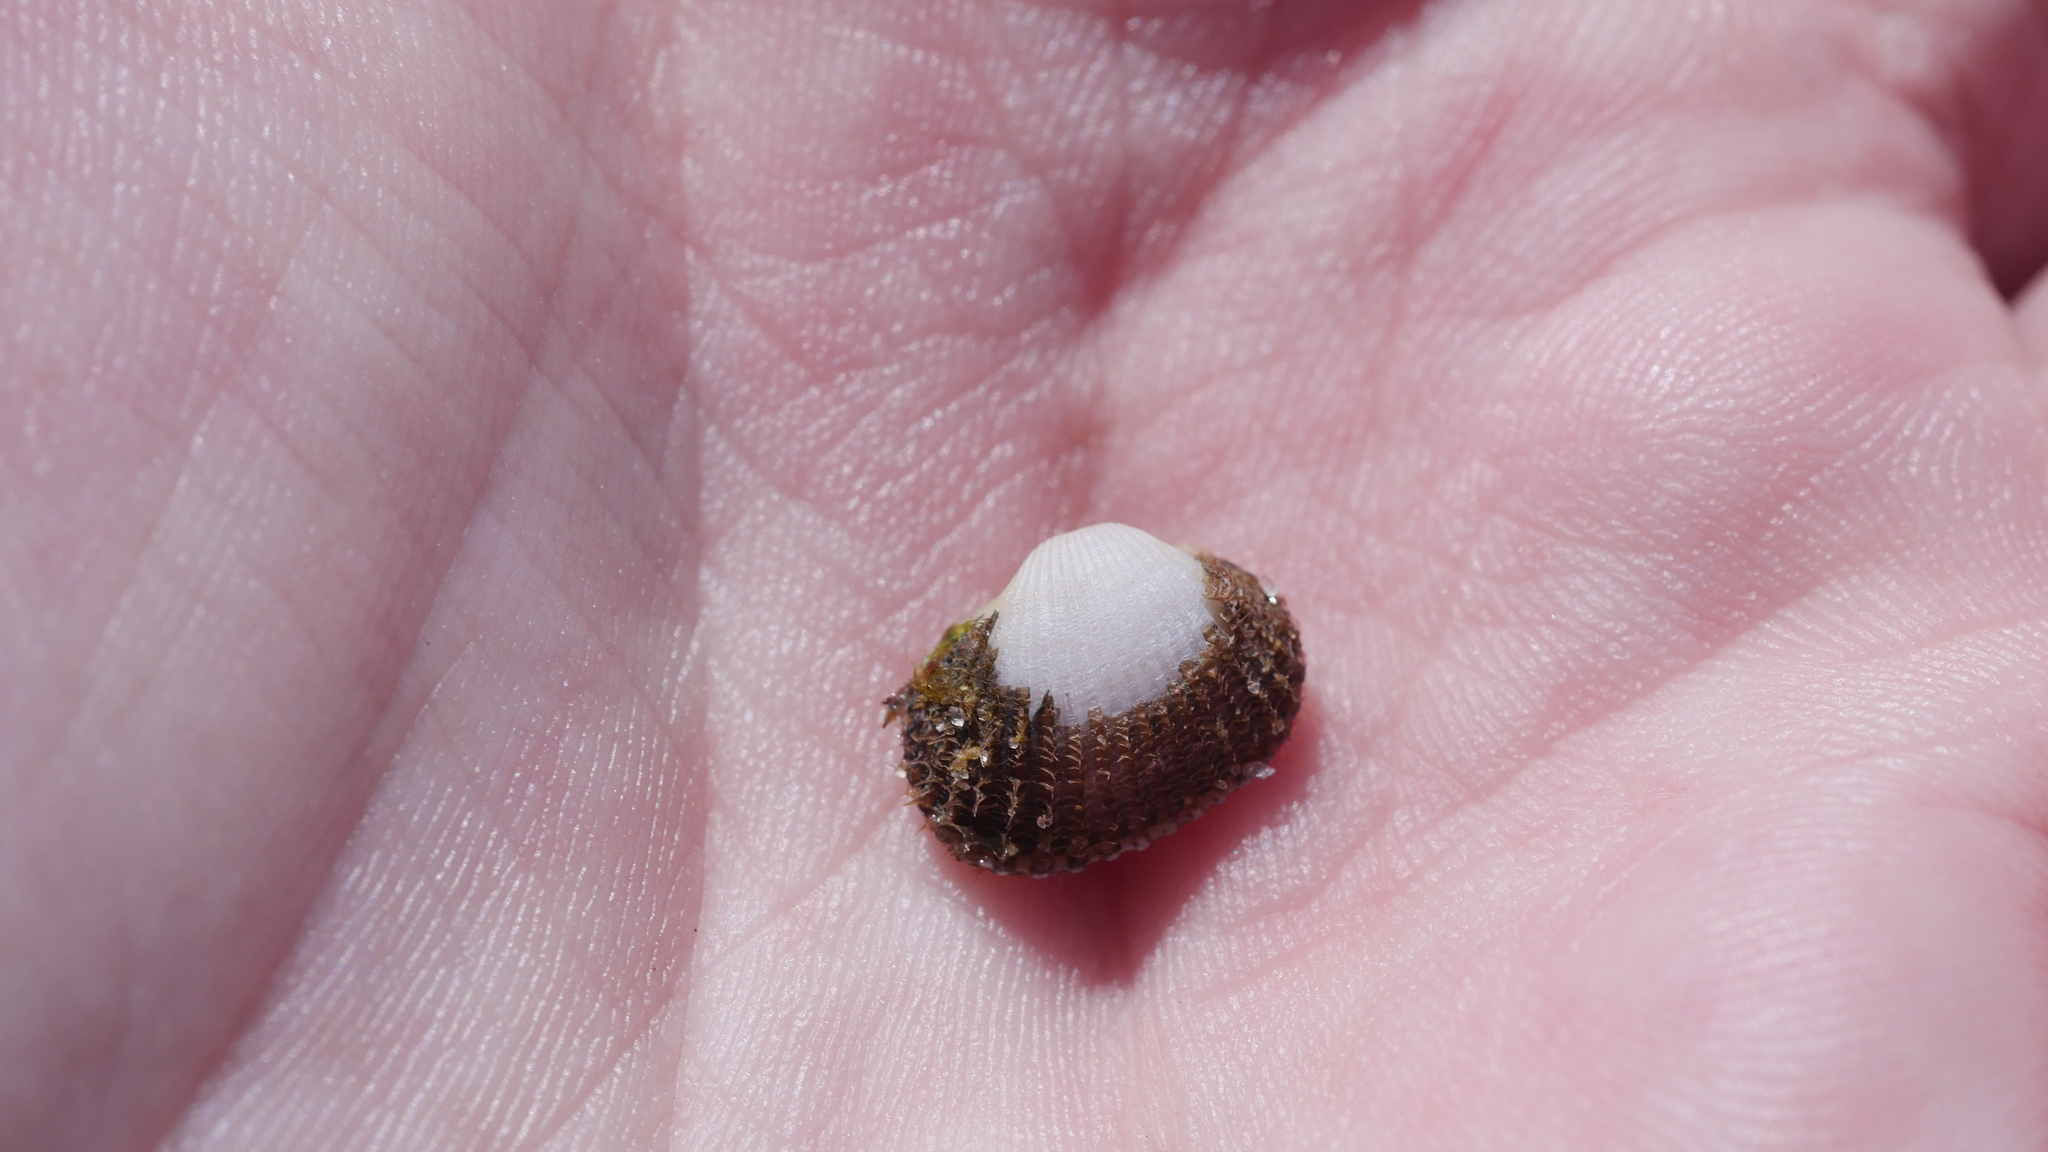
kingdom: Animalia
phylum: Mollusca
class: Bivalvia
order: Arcida
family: Arcidae
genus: Anadara
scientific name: Anadara transversa
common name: Transverse ark
